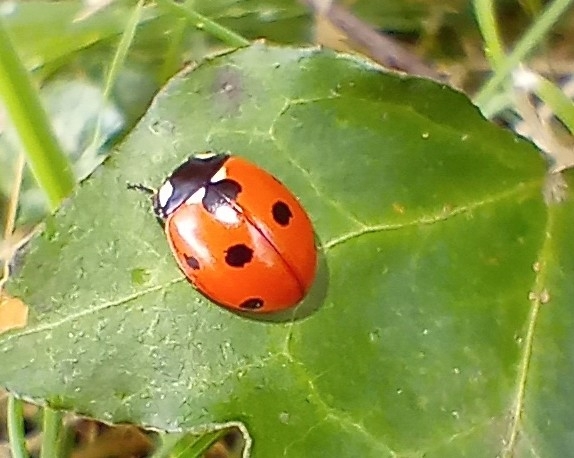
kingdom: Animalia
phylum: Arthropoda
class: Insecta
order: Coleoptera
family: Coccinellidae
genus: Coccinella
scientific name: Coccinella septempunctata
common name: Sevenspotted lady beetle
